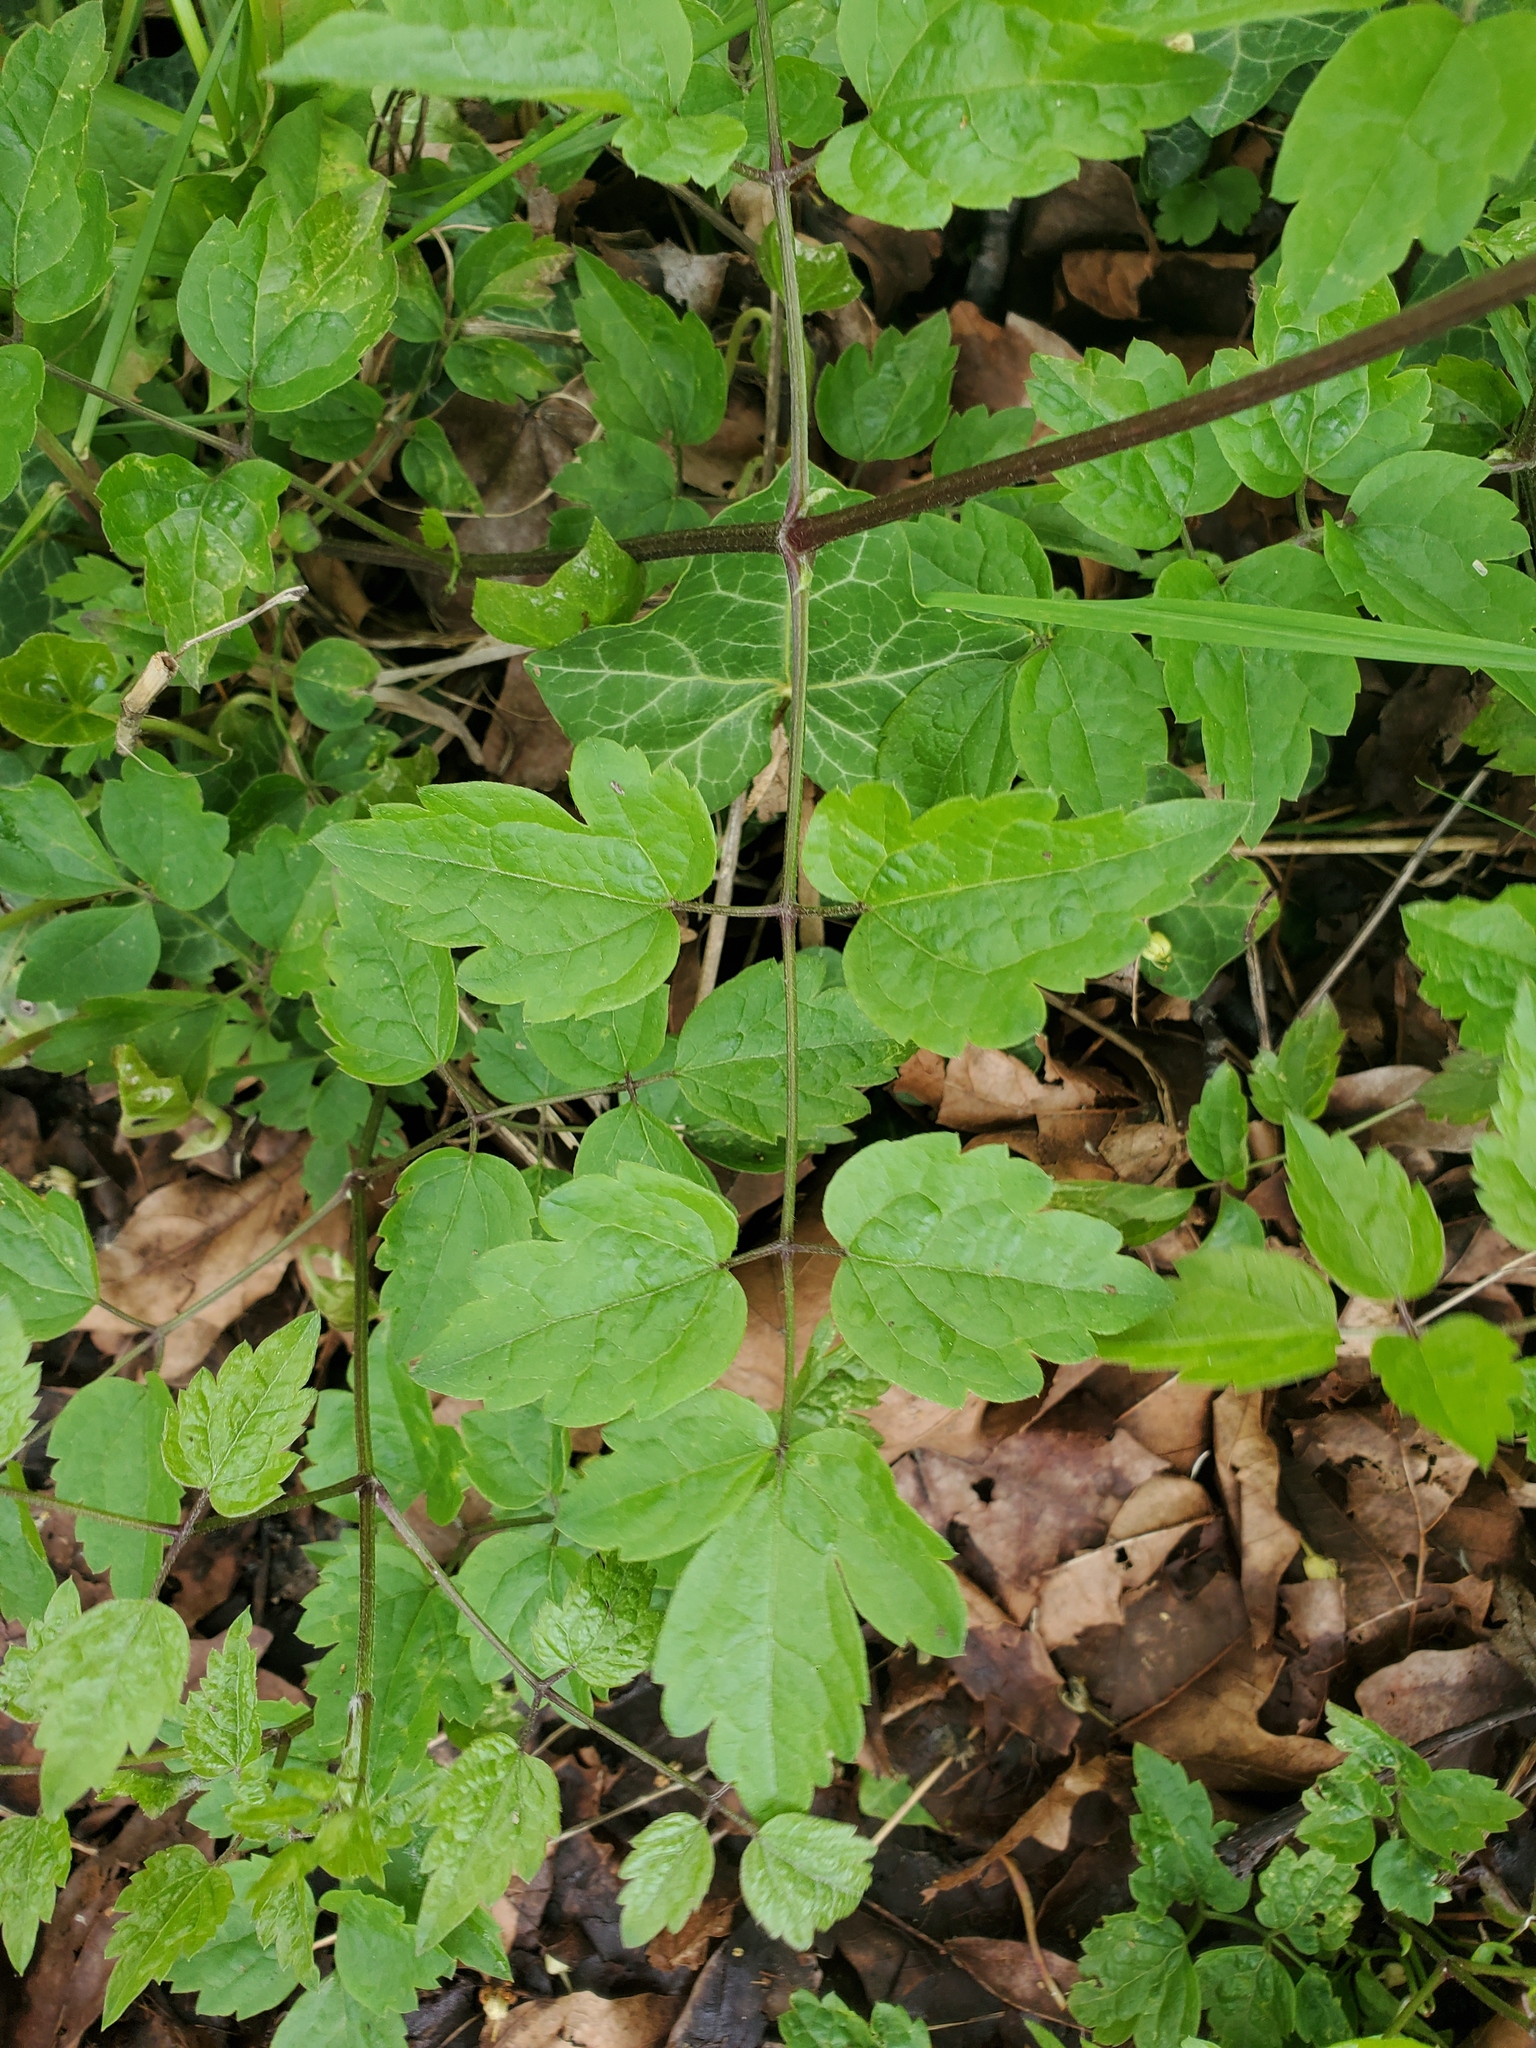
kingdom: Plantae
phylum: Tracheophyta
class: Magnoliopsida
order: Ranunculales
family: Ranunculaceae
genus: Clematis
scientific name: Clematis vitalba
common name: Evergreen clematis
